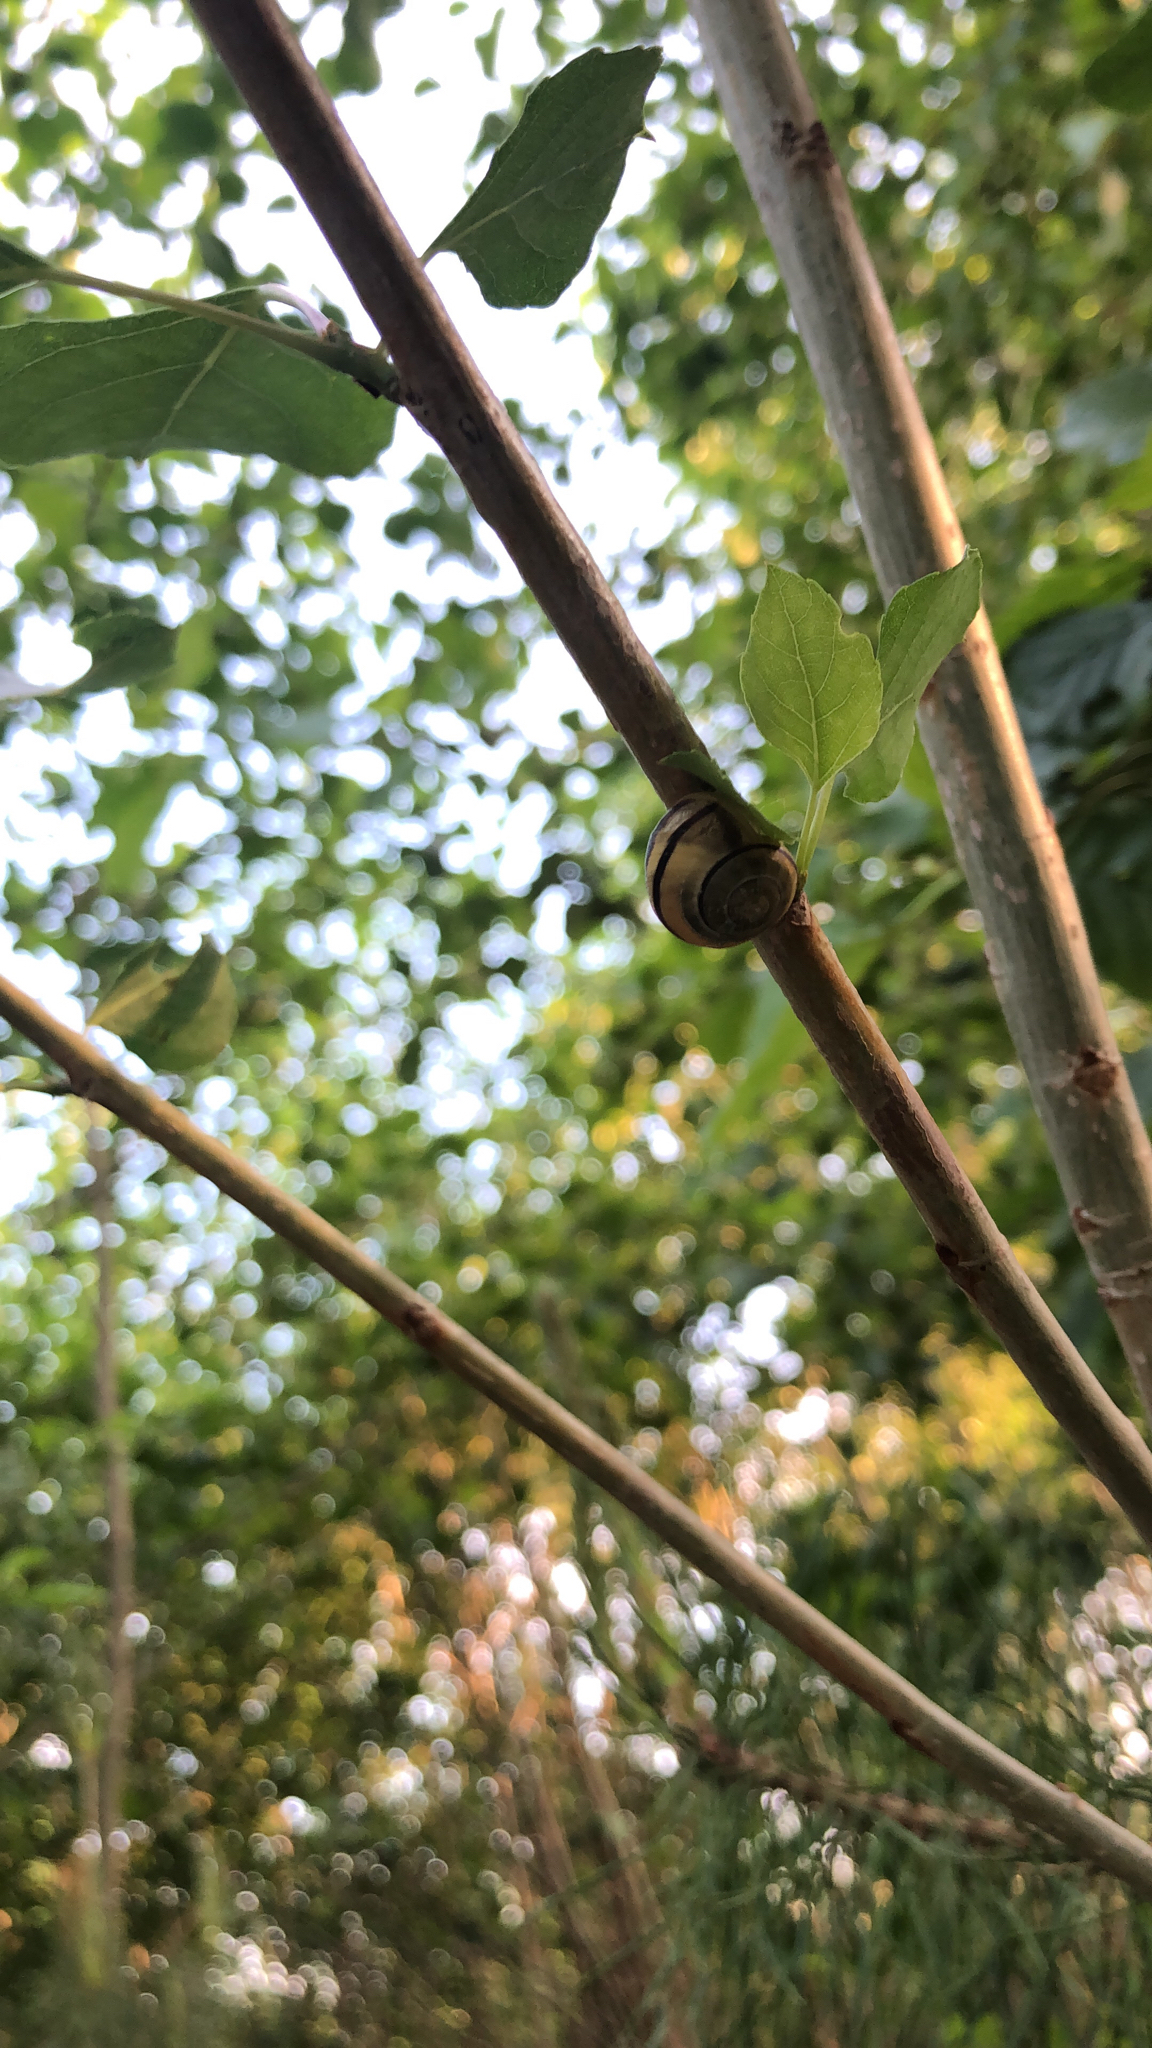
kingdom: Animalia
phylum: Mollusca
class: Gastropoda
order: Stylommatophora
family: Helicidae
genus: Cepaea
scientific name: Cepaea nemoralis
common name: Grovesnail
